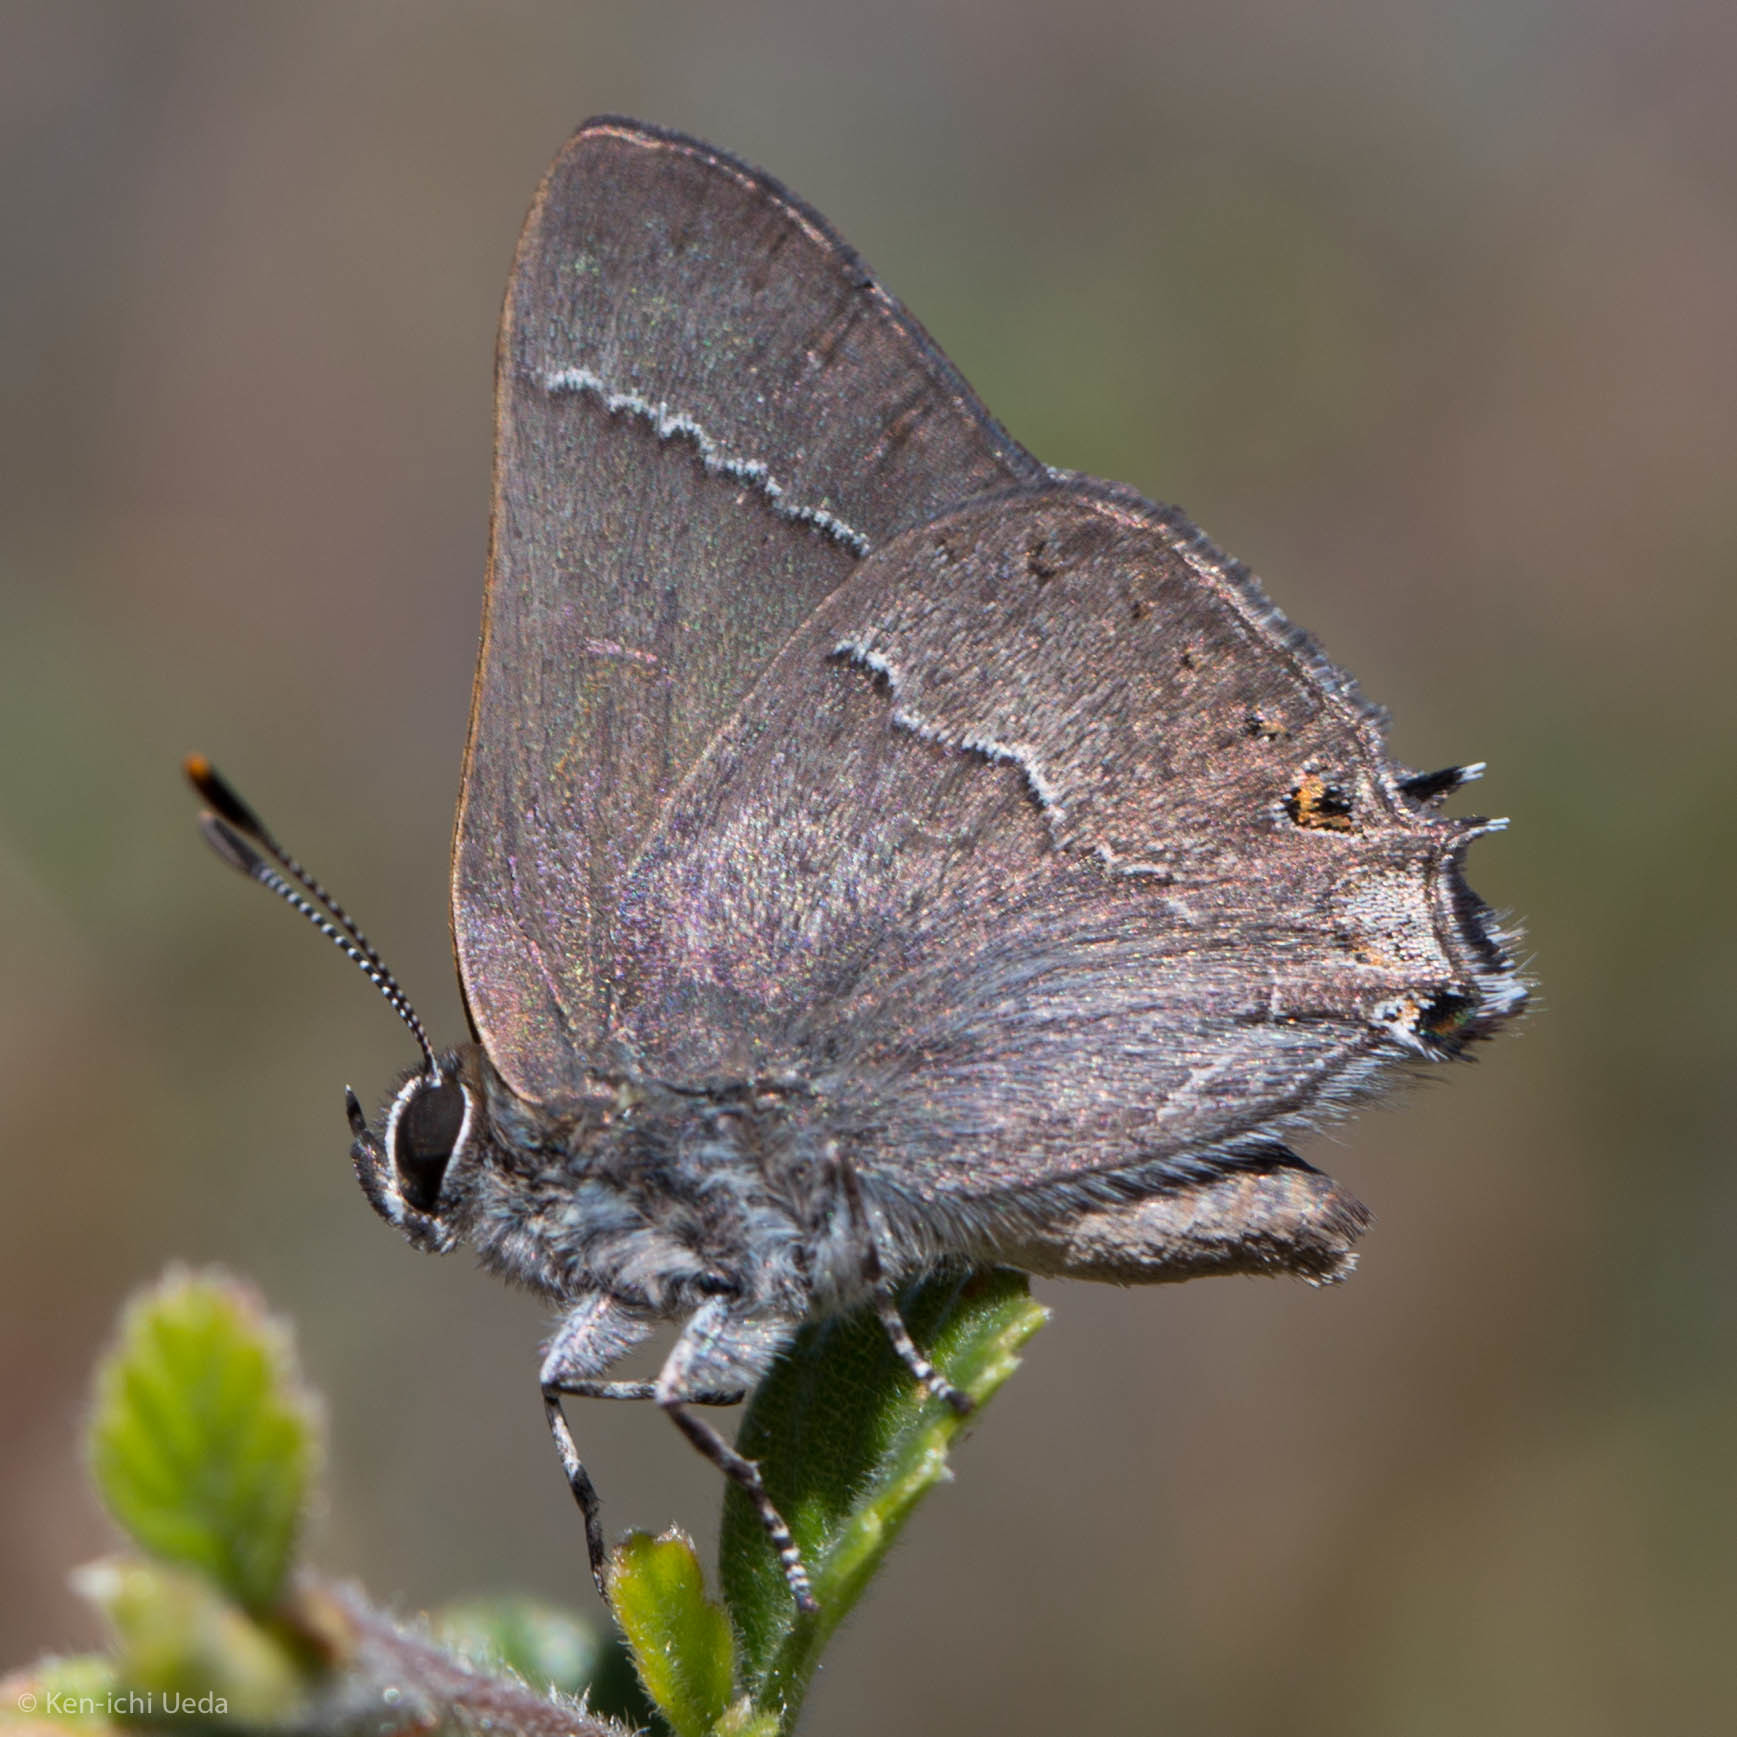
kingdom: Animalia
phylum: Arthropoda
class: Insecta
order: Lepidoptera
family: Lycaenidae
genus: Thecla
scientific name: Thecla tetra
